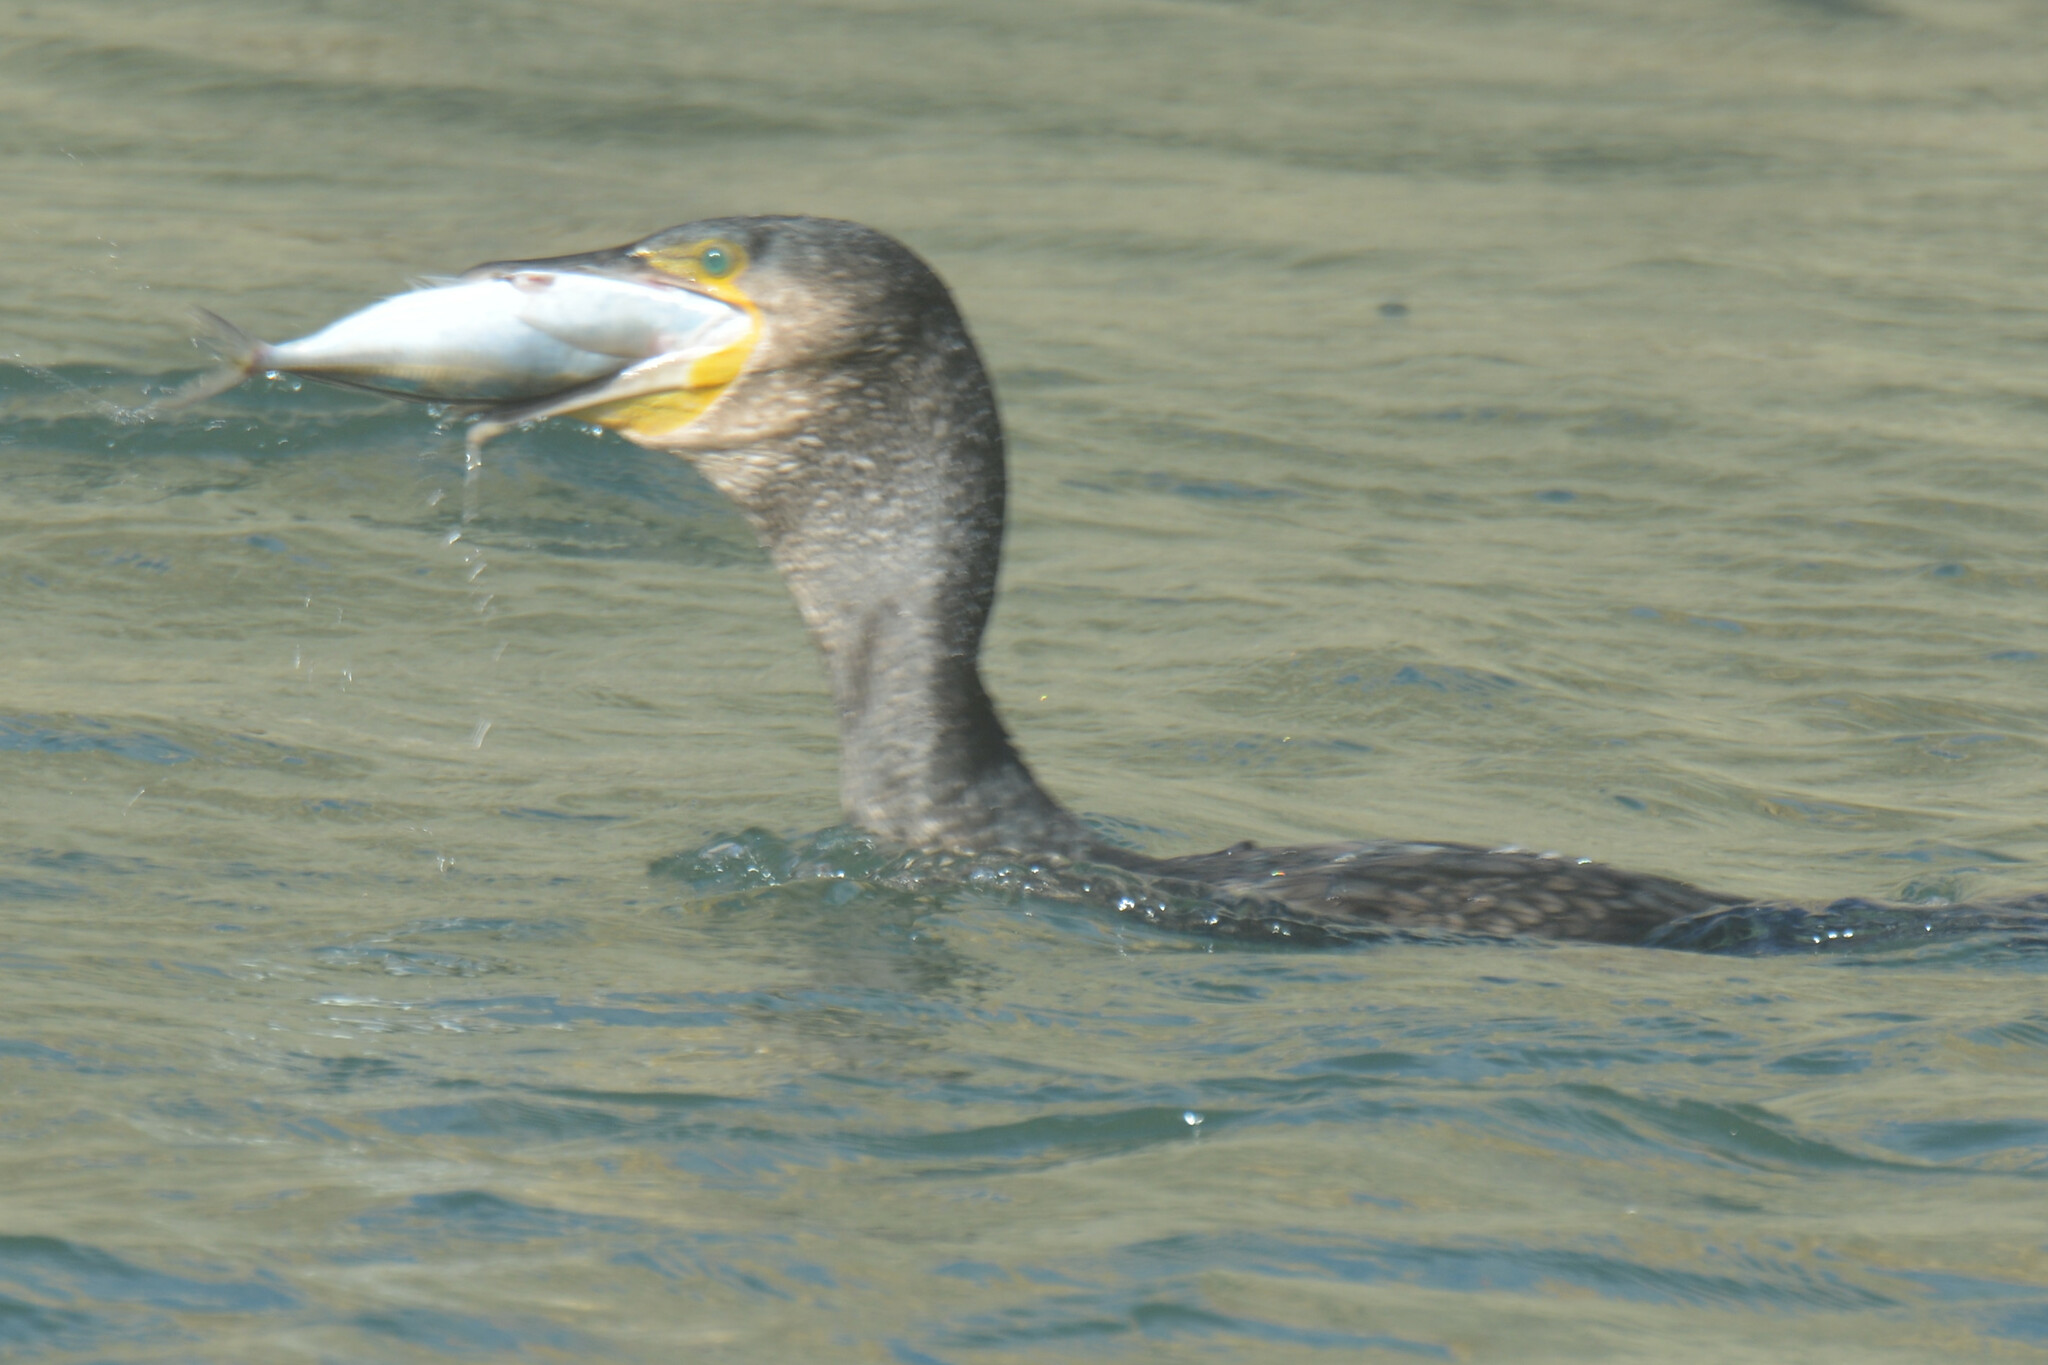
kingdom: Animalia
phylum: Chordata
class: Aves
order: Suliformes
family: Phalacrocoracidae
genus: Phalacrocorax
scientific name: Phalacrocorax carbo
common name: Great cormorant
